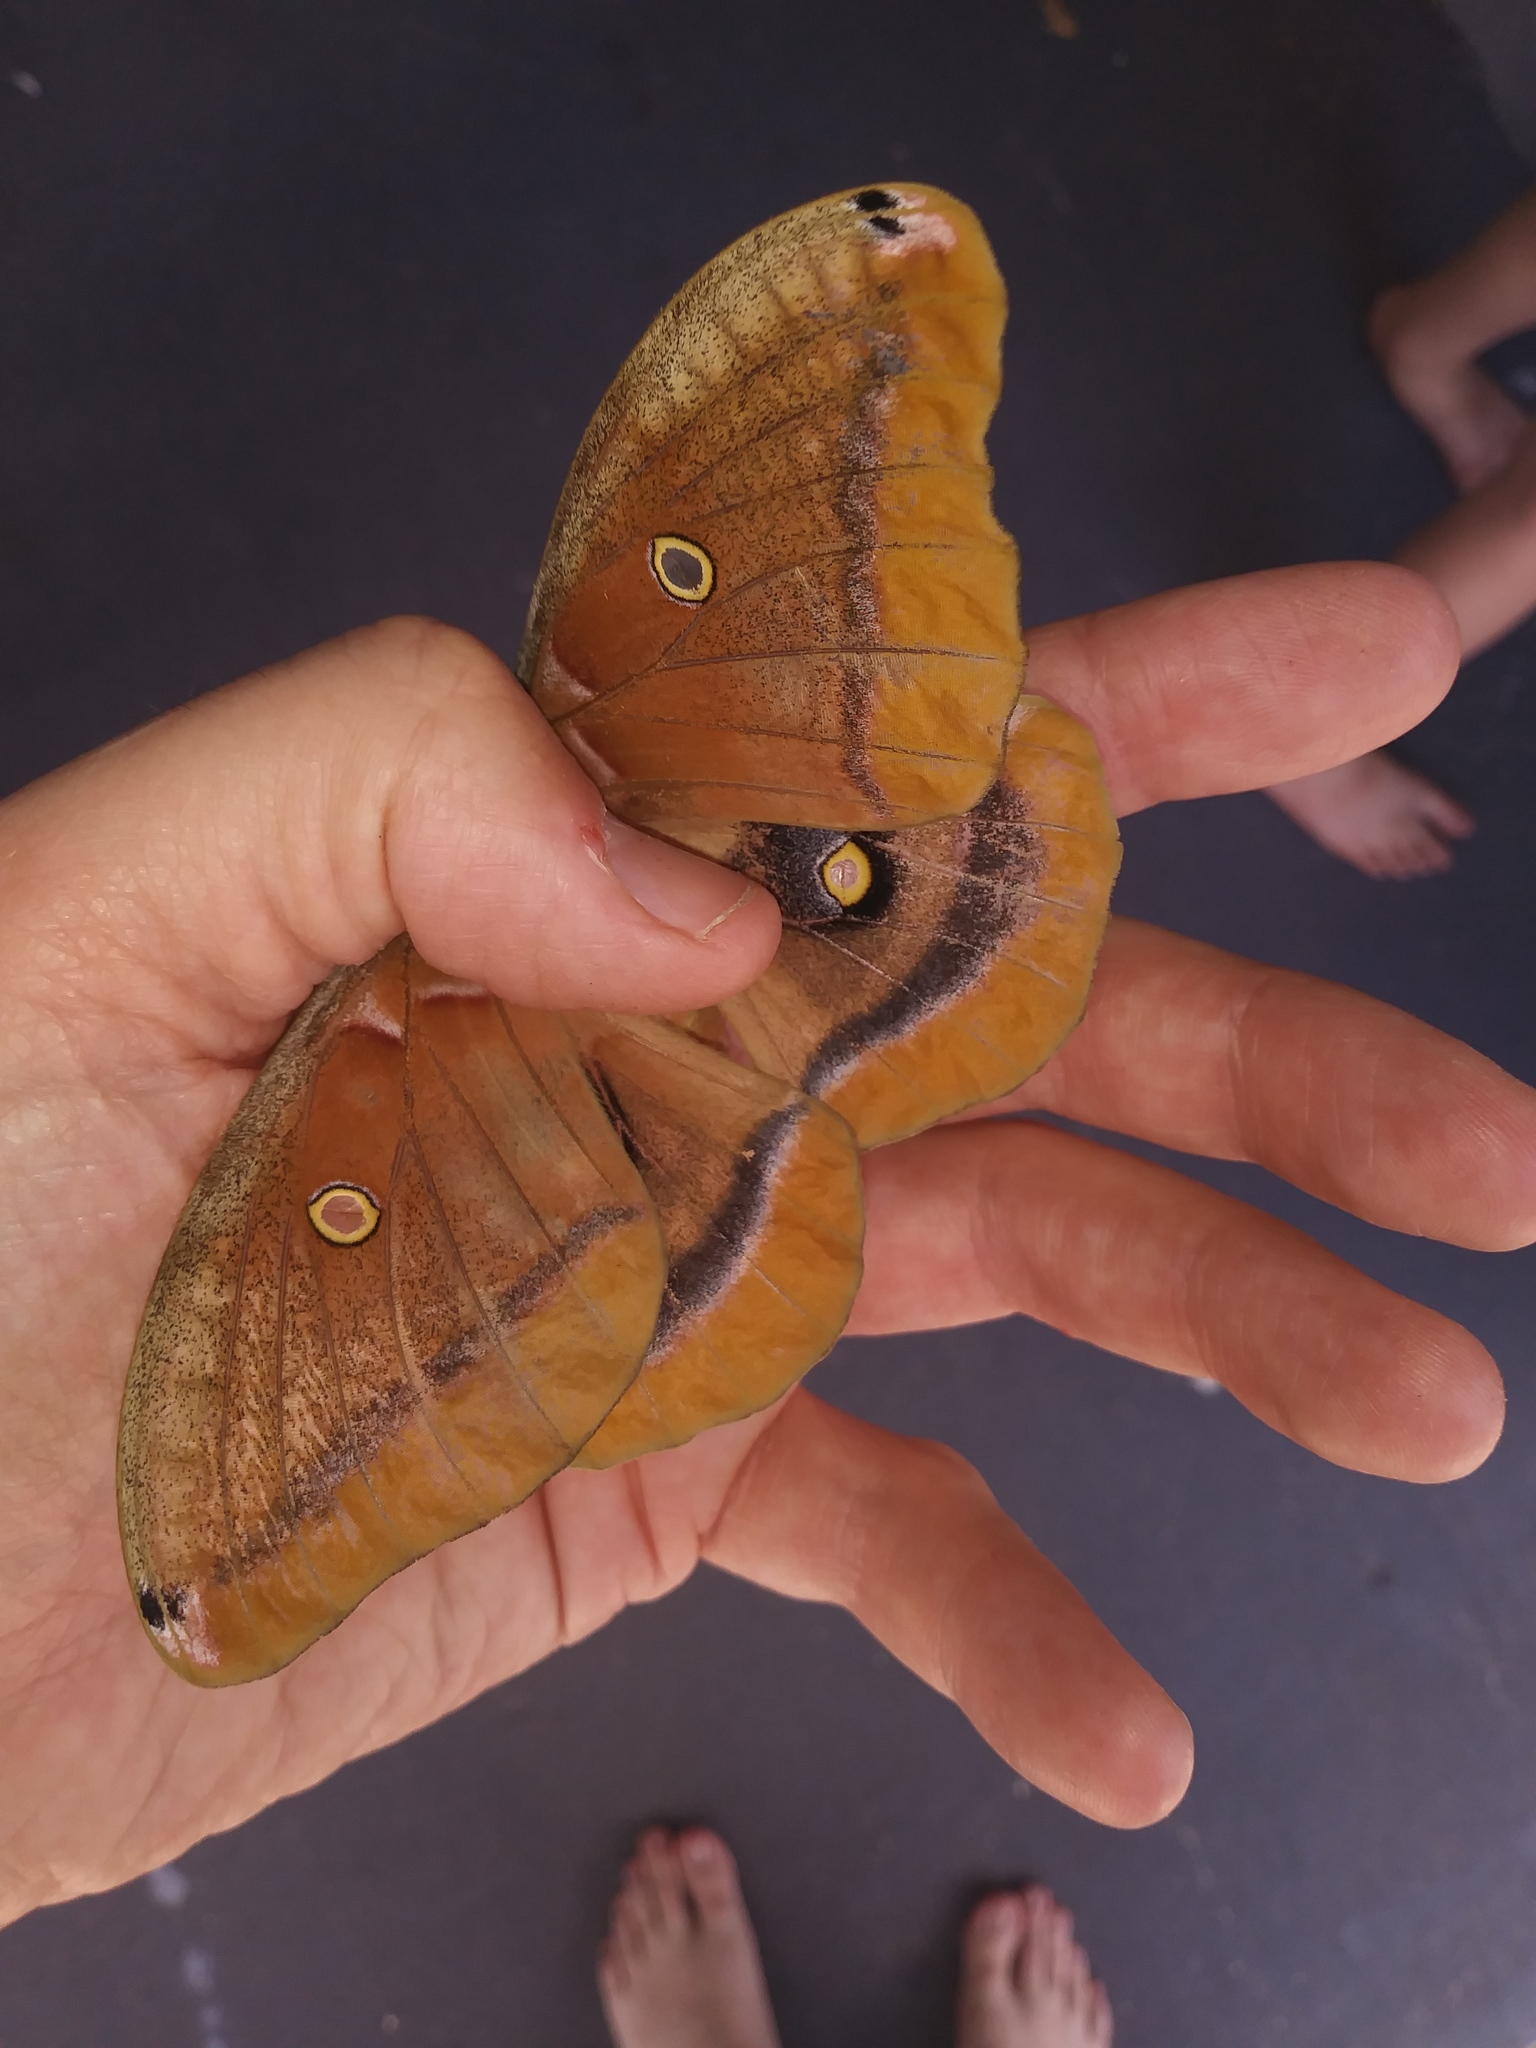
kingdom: Animalia
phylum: Arthropoda
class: Insecta
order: Lepidoptera
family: Saturniidae
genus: Antheraea
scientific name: Antheraea polyphemus
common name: Polyphemus moth
